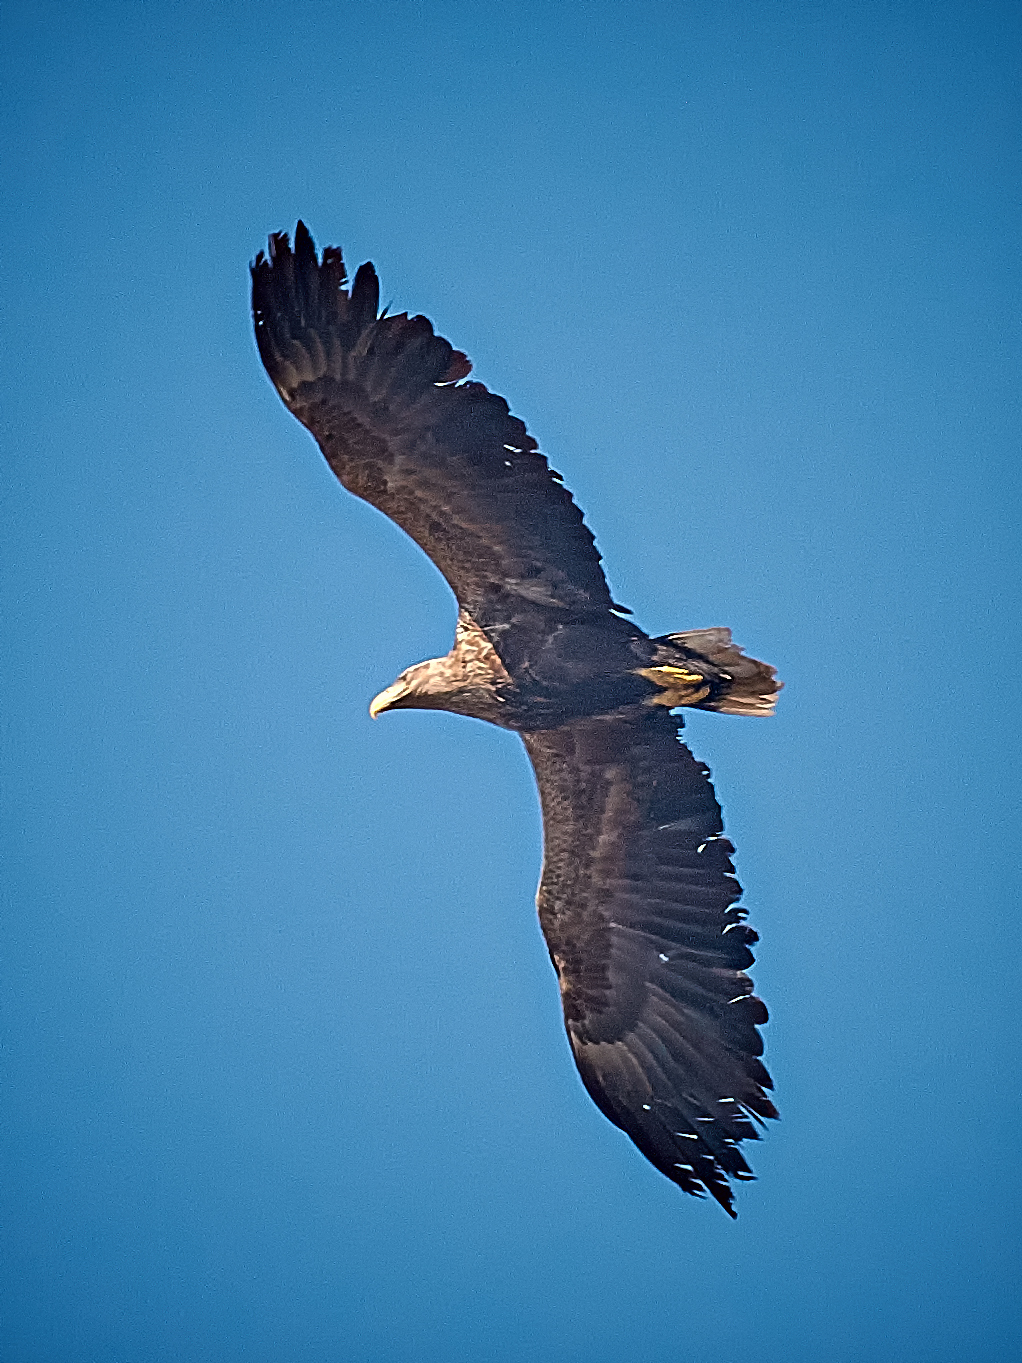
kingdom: Animalia
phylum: Chordata
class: Aves
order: Accipitriformes
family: Accipitridae
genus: Haliaeetus
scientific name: Haliaeetus albicilla
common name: White-tailed eagle
